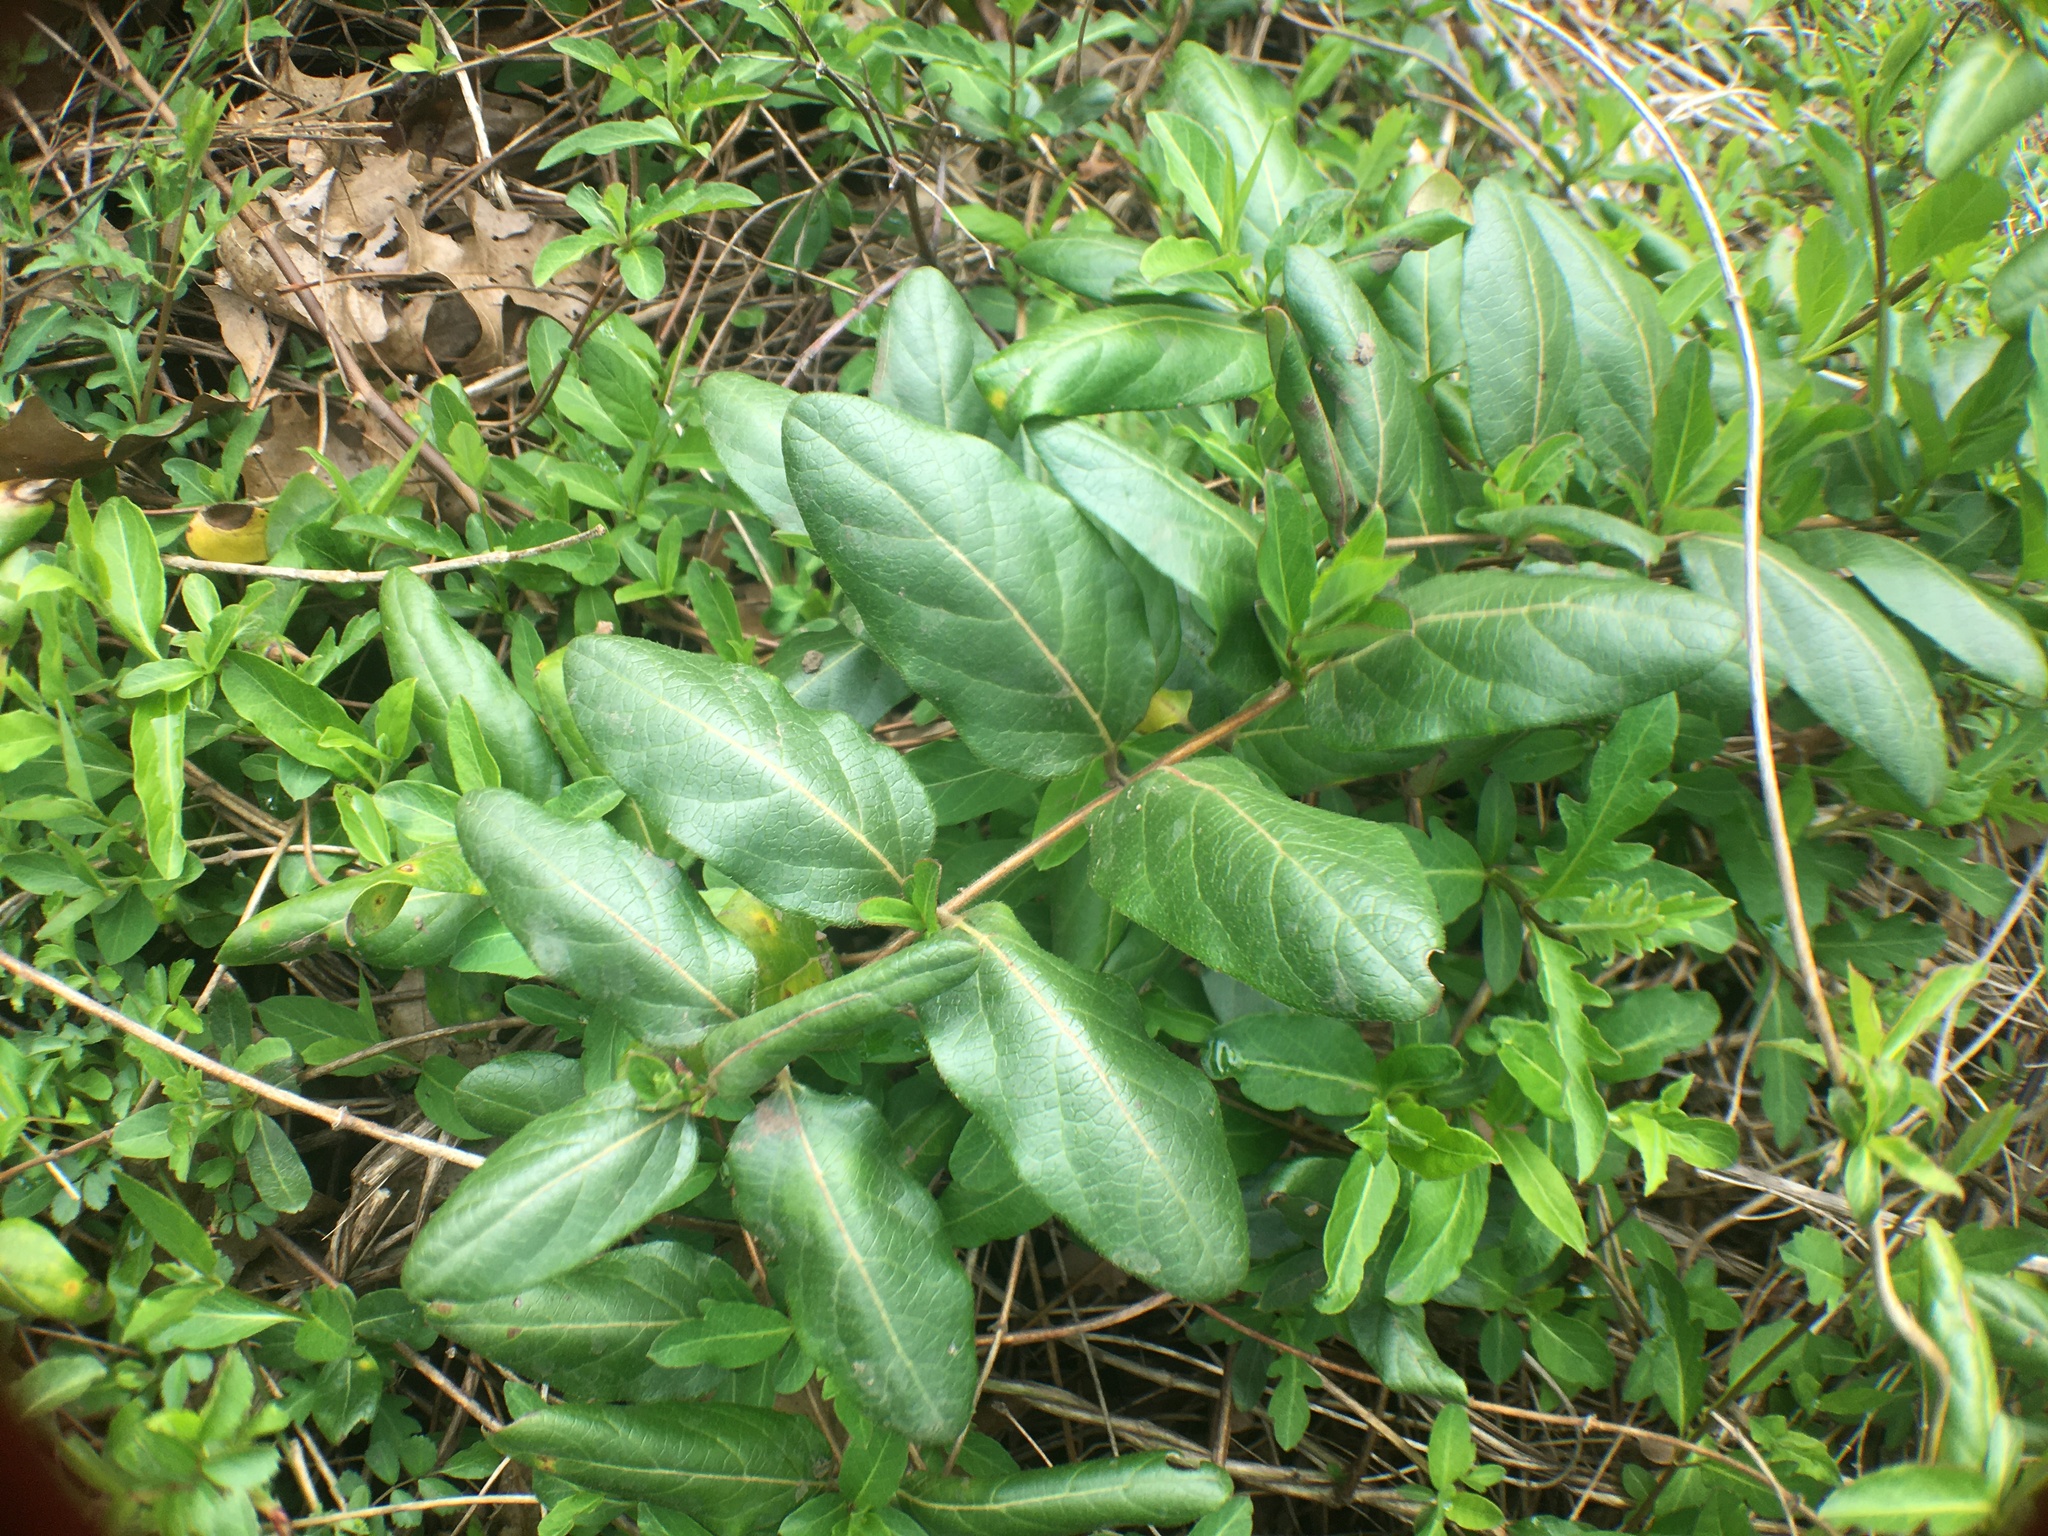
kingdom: Plantae
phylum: Tracheophyta
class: Magnoliopsida
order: Dipsacales
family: Caprifoliaceae
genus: Lonicera
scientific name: Lonicera japonica
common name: Japanese honeysuckle
